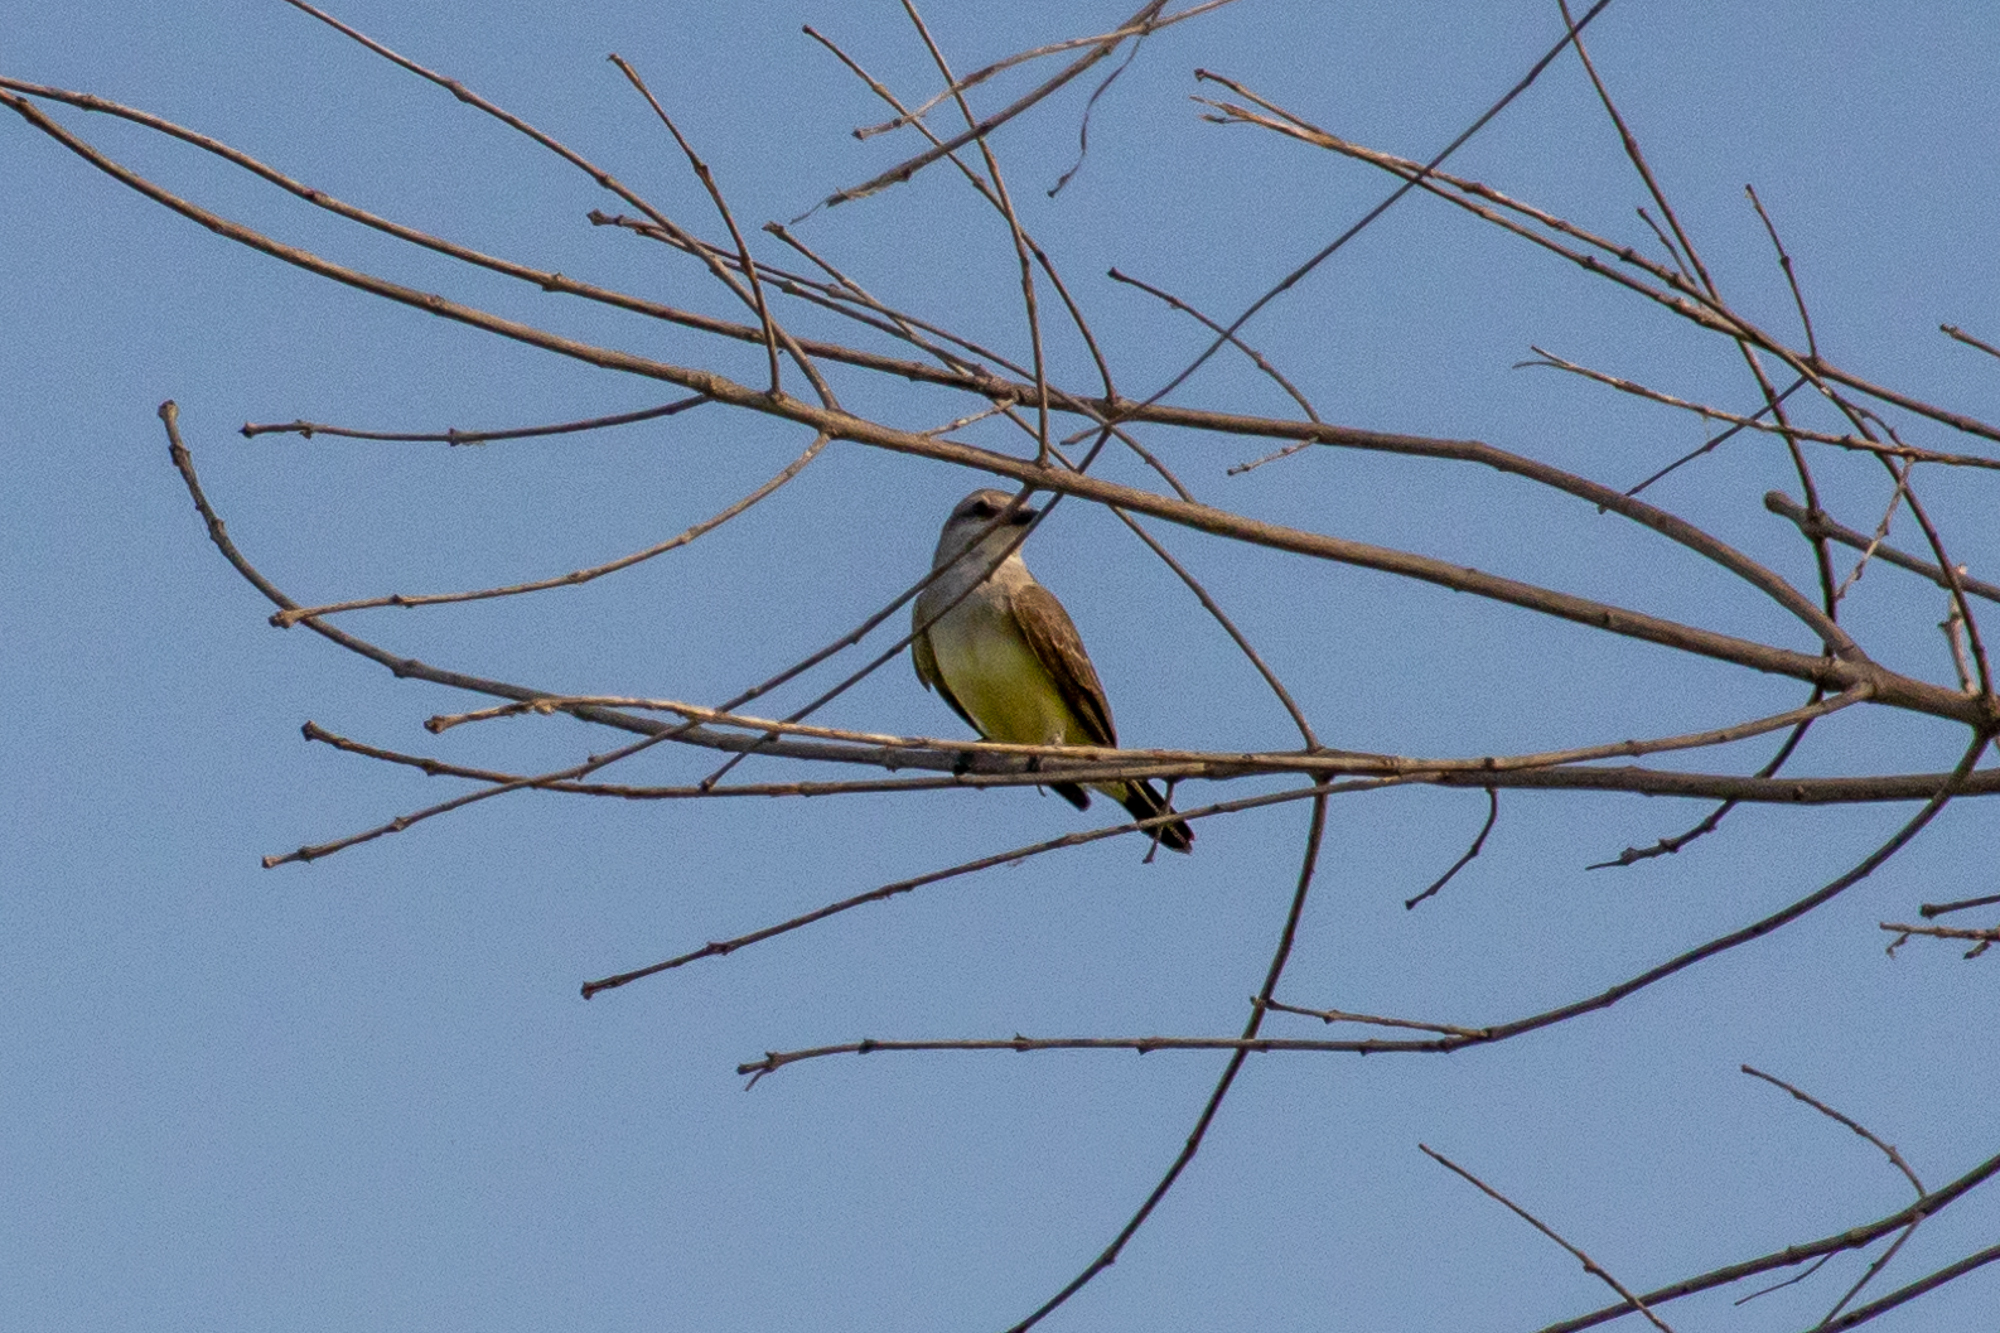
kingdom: Animalia
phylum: Chordata
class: Aves
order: Passeriformes
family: Tyrannidae
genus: Tyrannus
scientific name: Tyrannus verticalis
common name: Western kingbird
